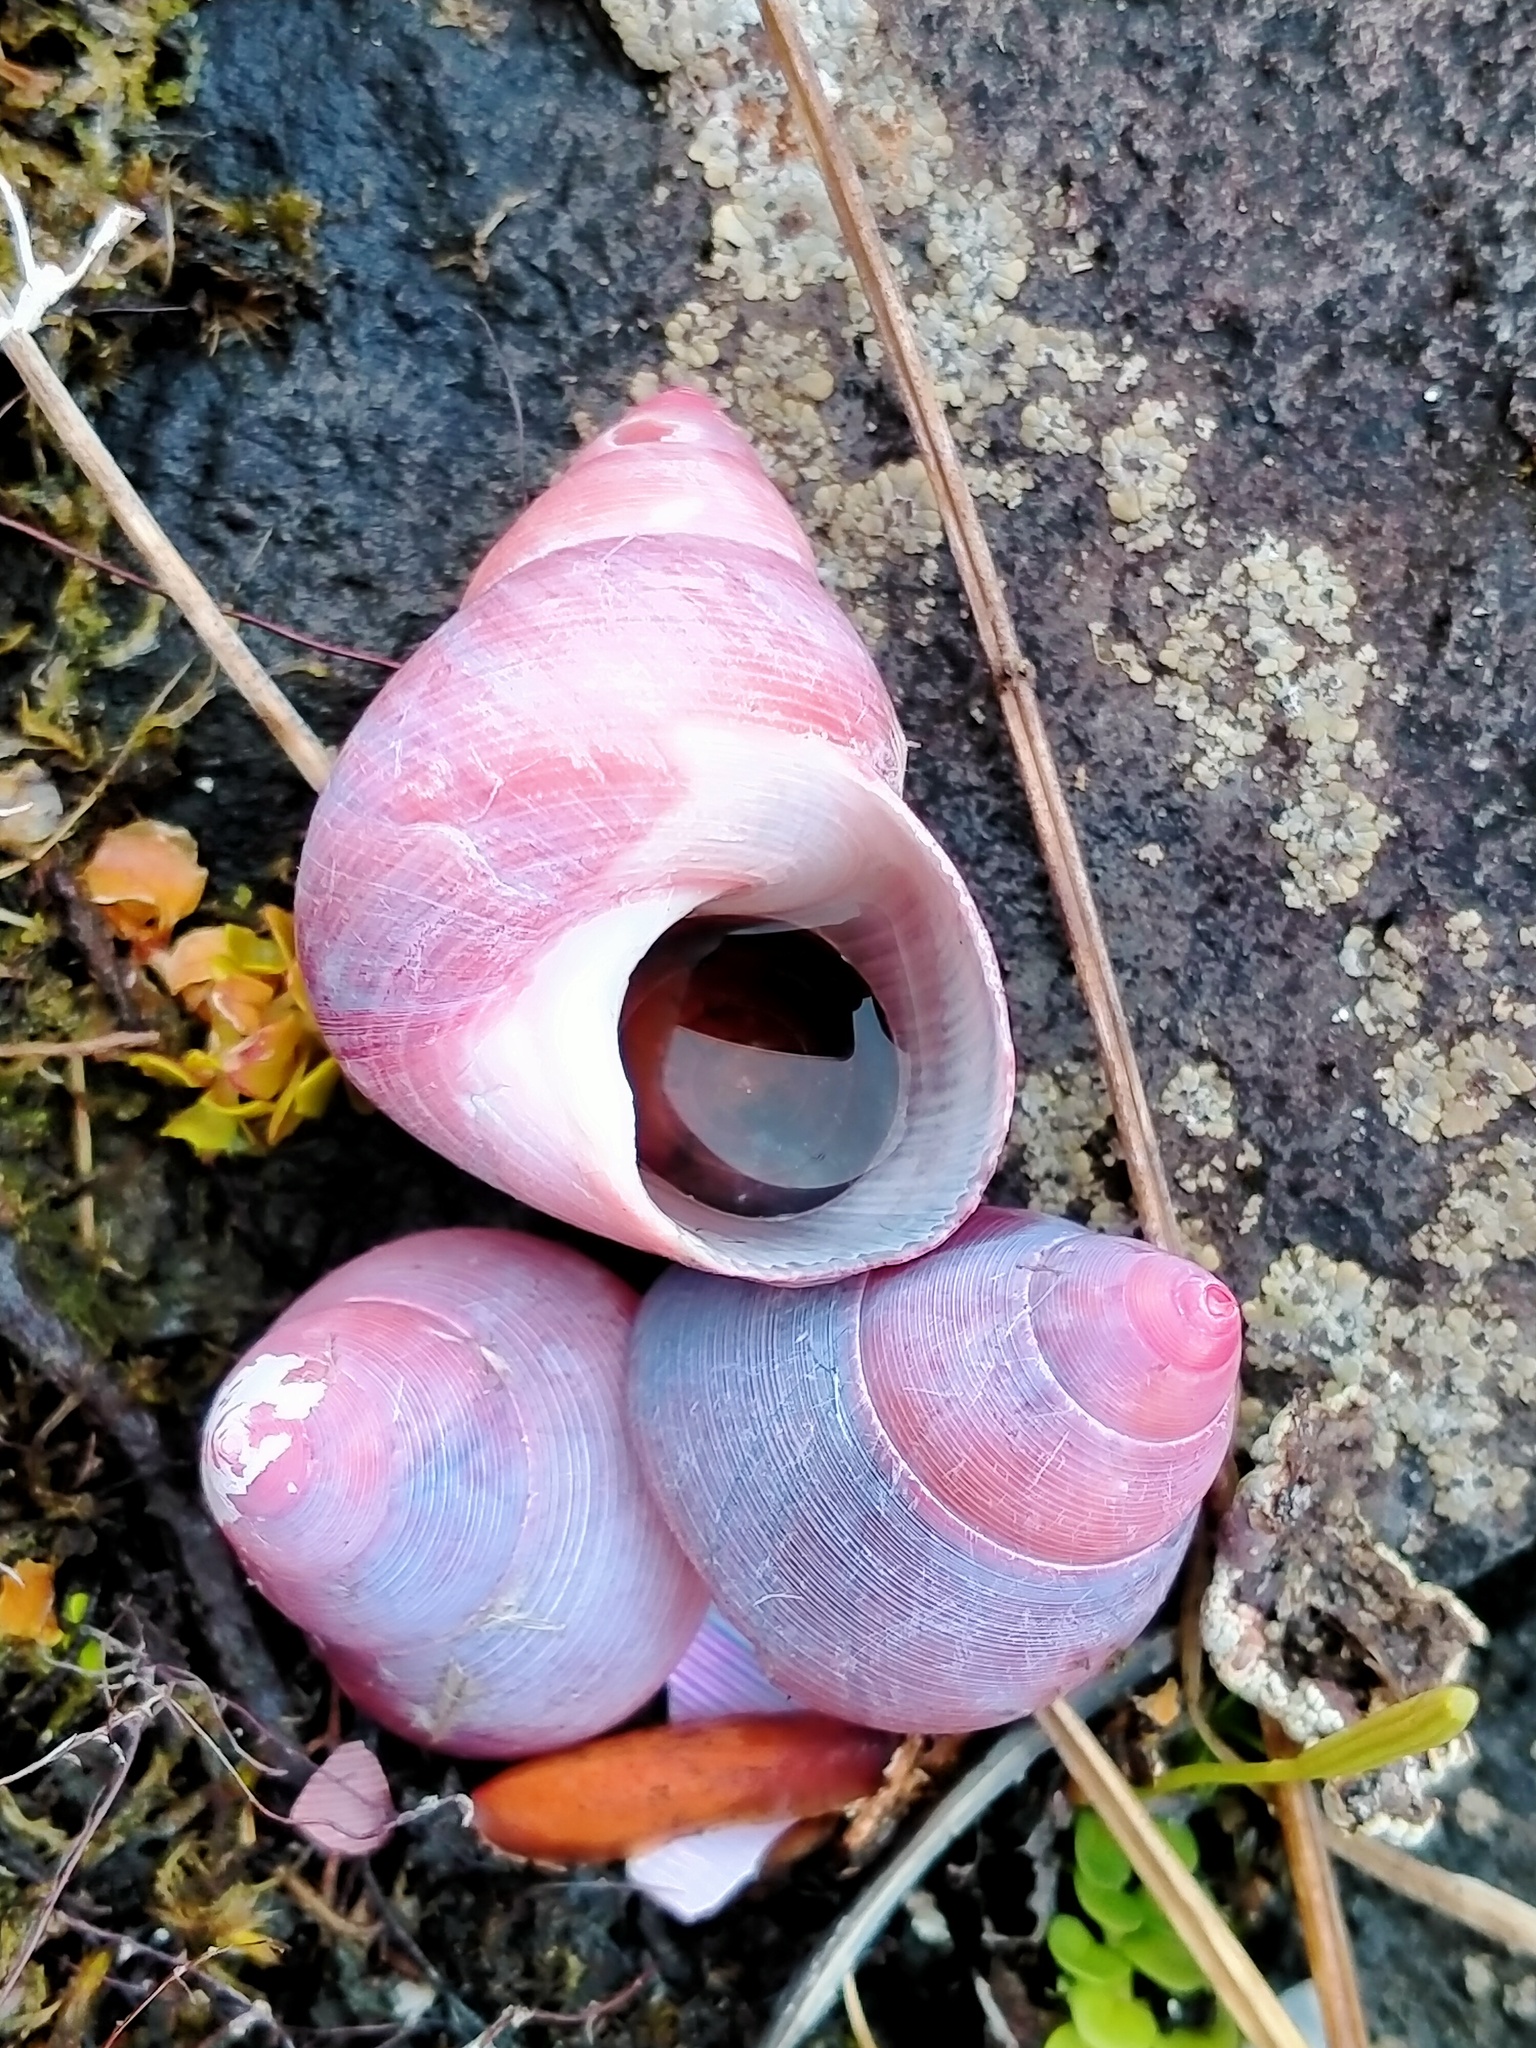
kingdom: Animalia
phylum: Mollusca
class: Gastropoda
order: Trochida
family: Trochidae
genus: Cantharidus
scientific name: Cantharidus capillaceus
